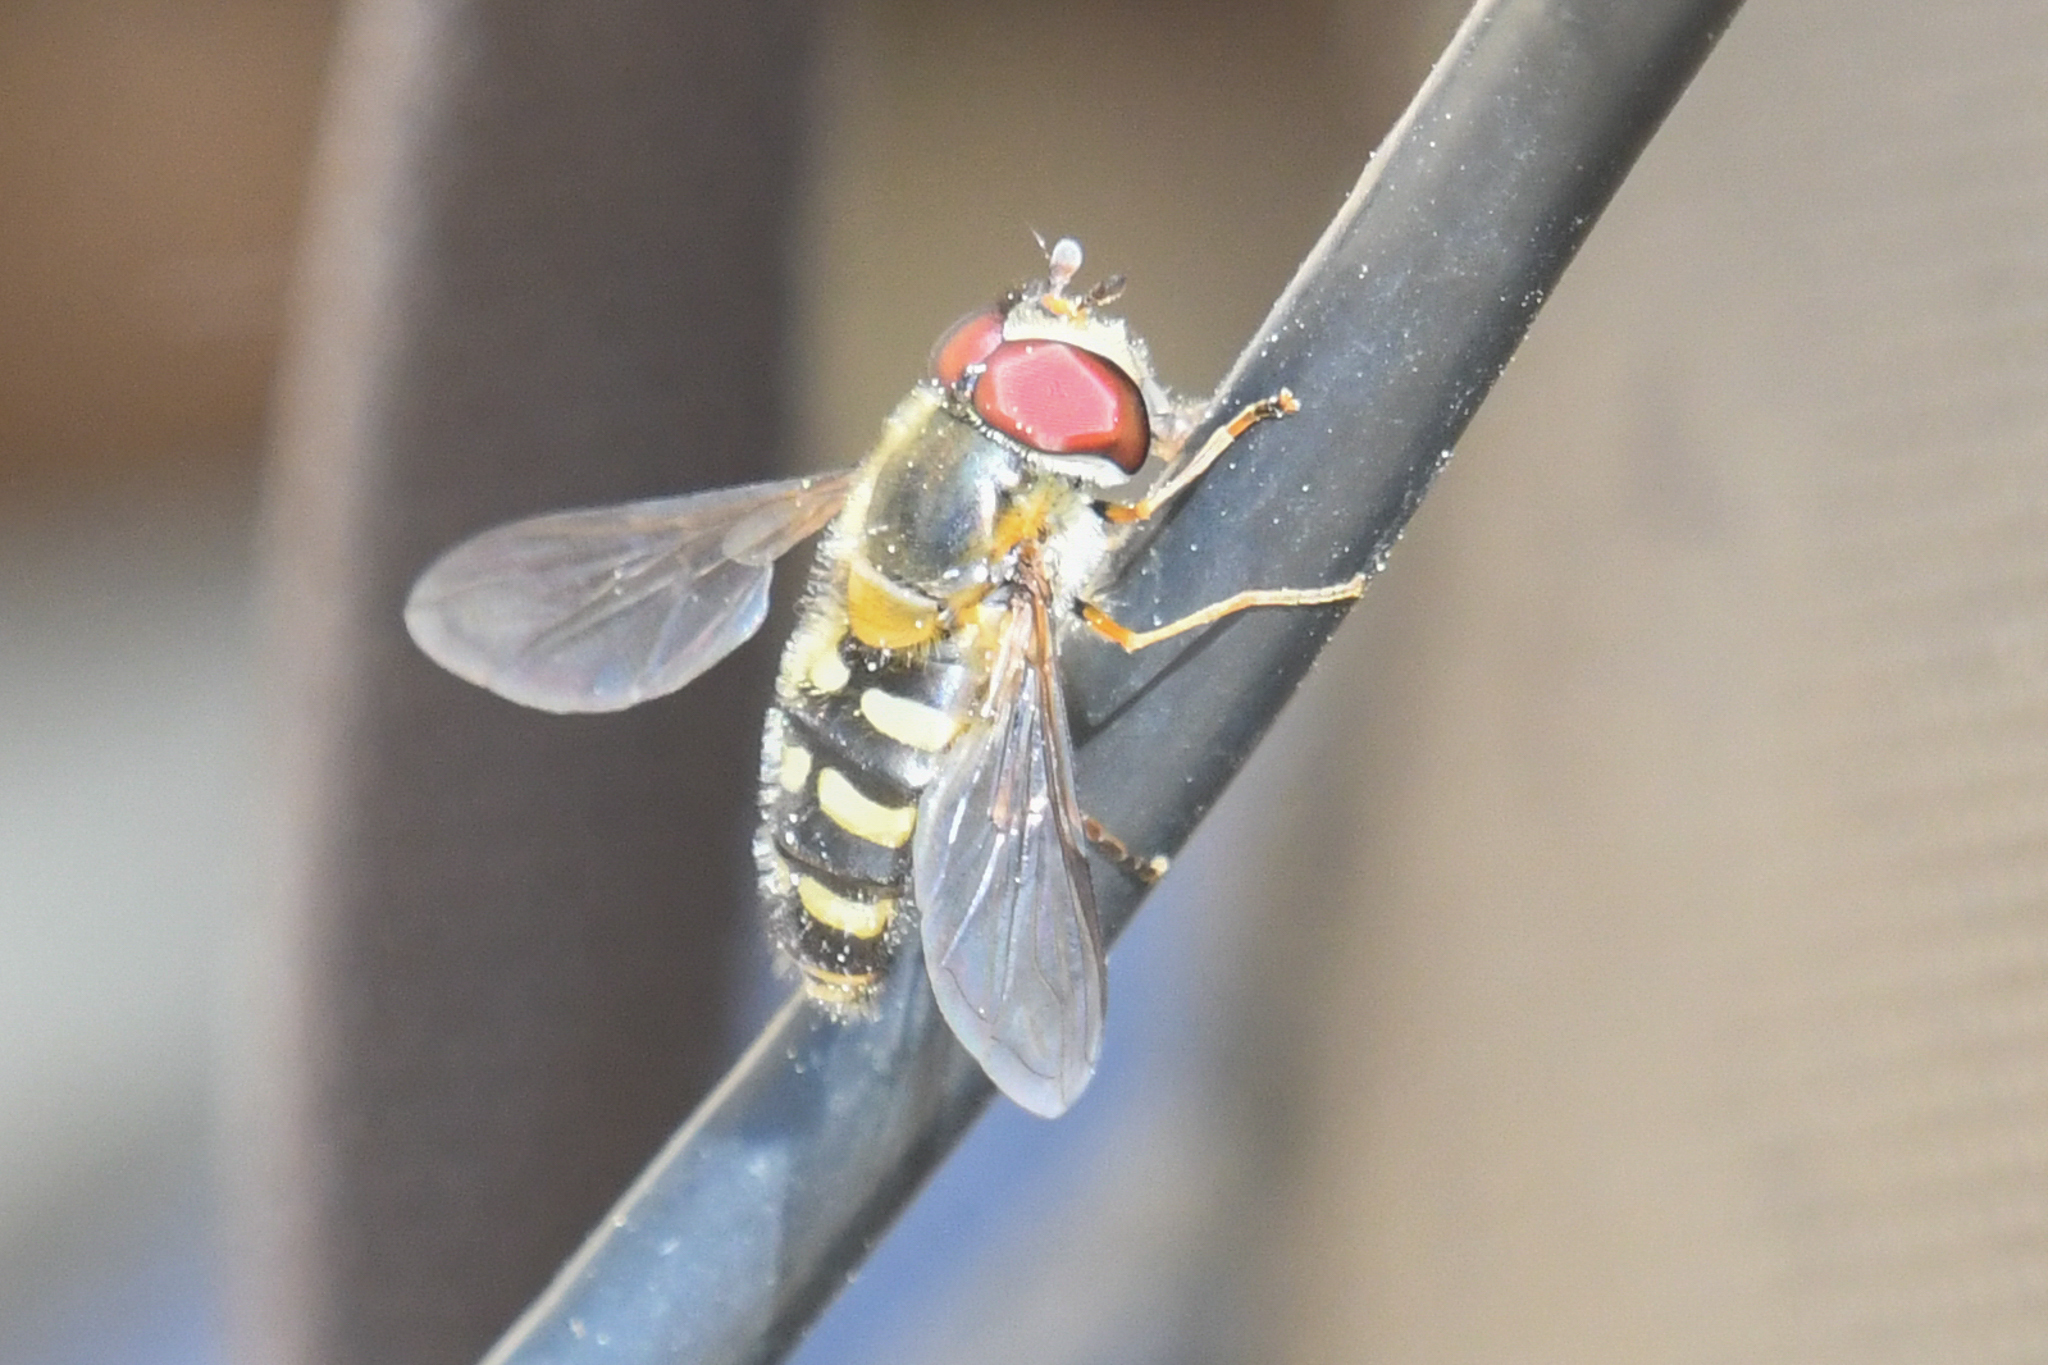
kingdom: Animalia
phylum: Arthropoda
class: Insecta
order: Diptera
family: Syrphidae
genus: Lapposyrphus
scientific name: Lapposyrphus lapponicus
